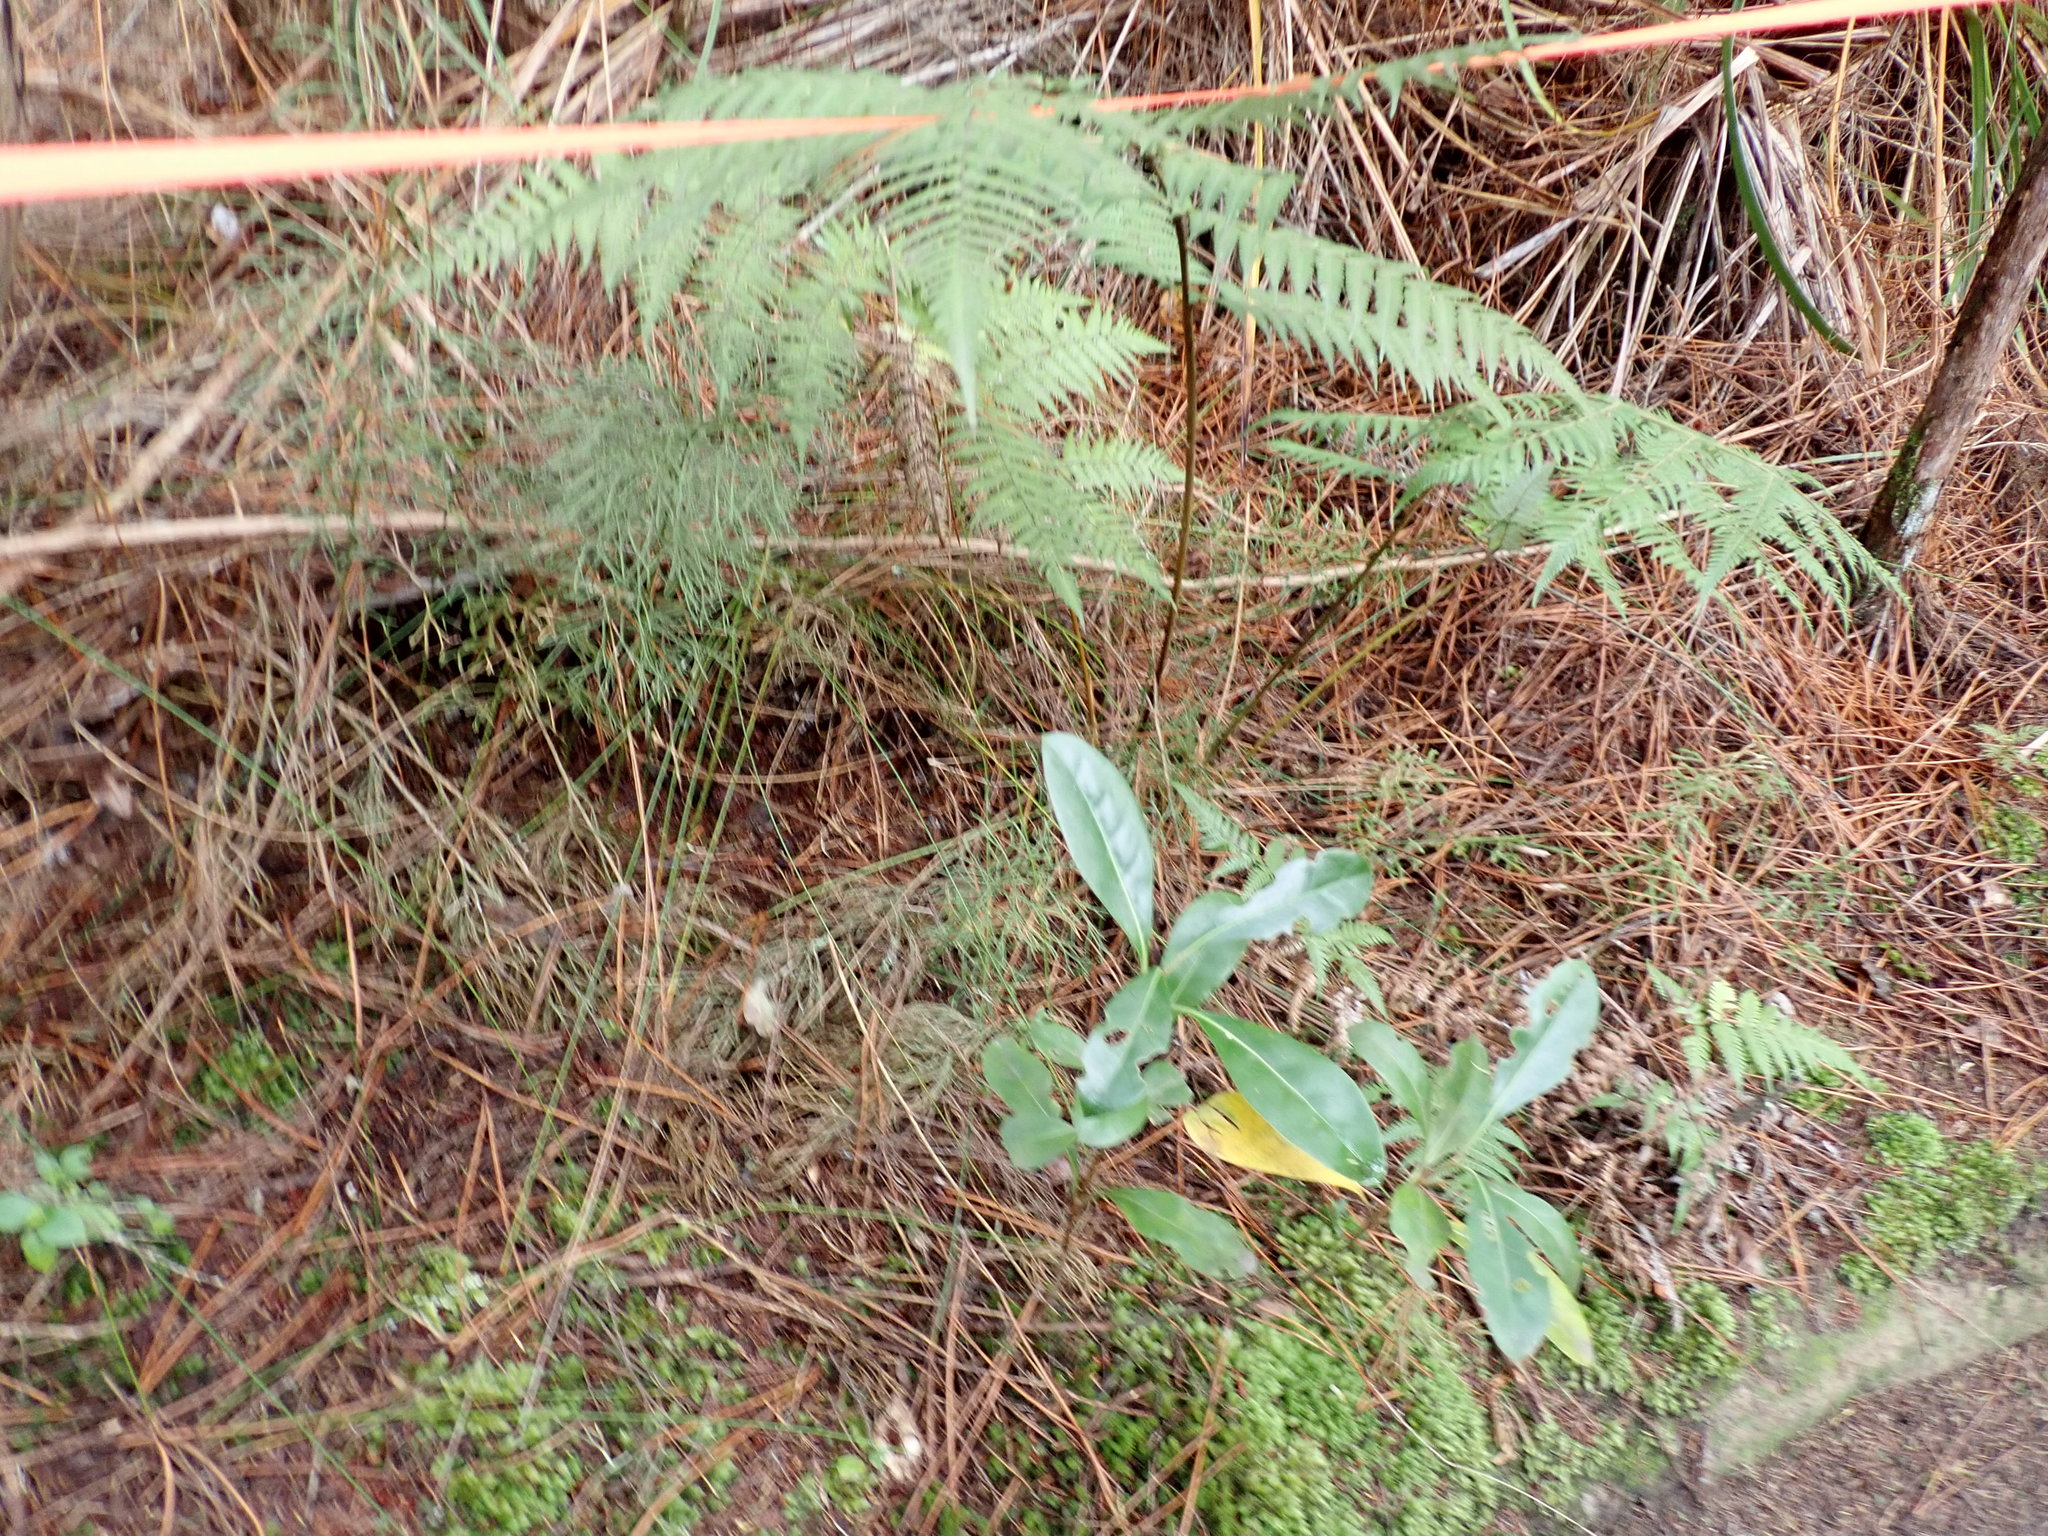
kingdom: Plantae
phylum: Tracheophyta
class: Lycopodiopsida
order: Lycopodiales
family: Lycopodiaceae
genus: Pseudolycopodium
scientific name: Pseudolycopodium densum
